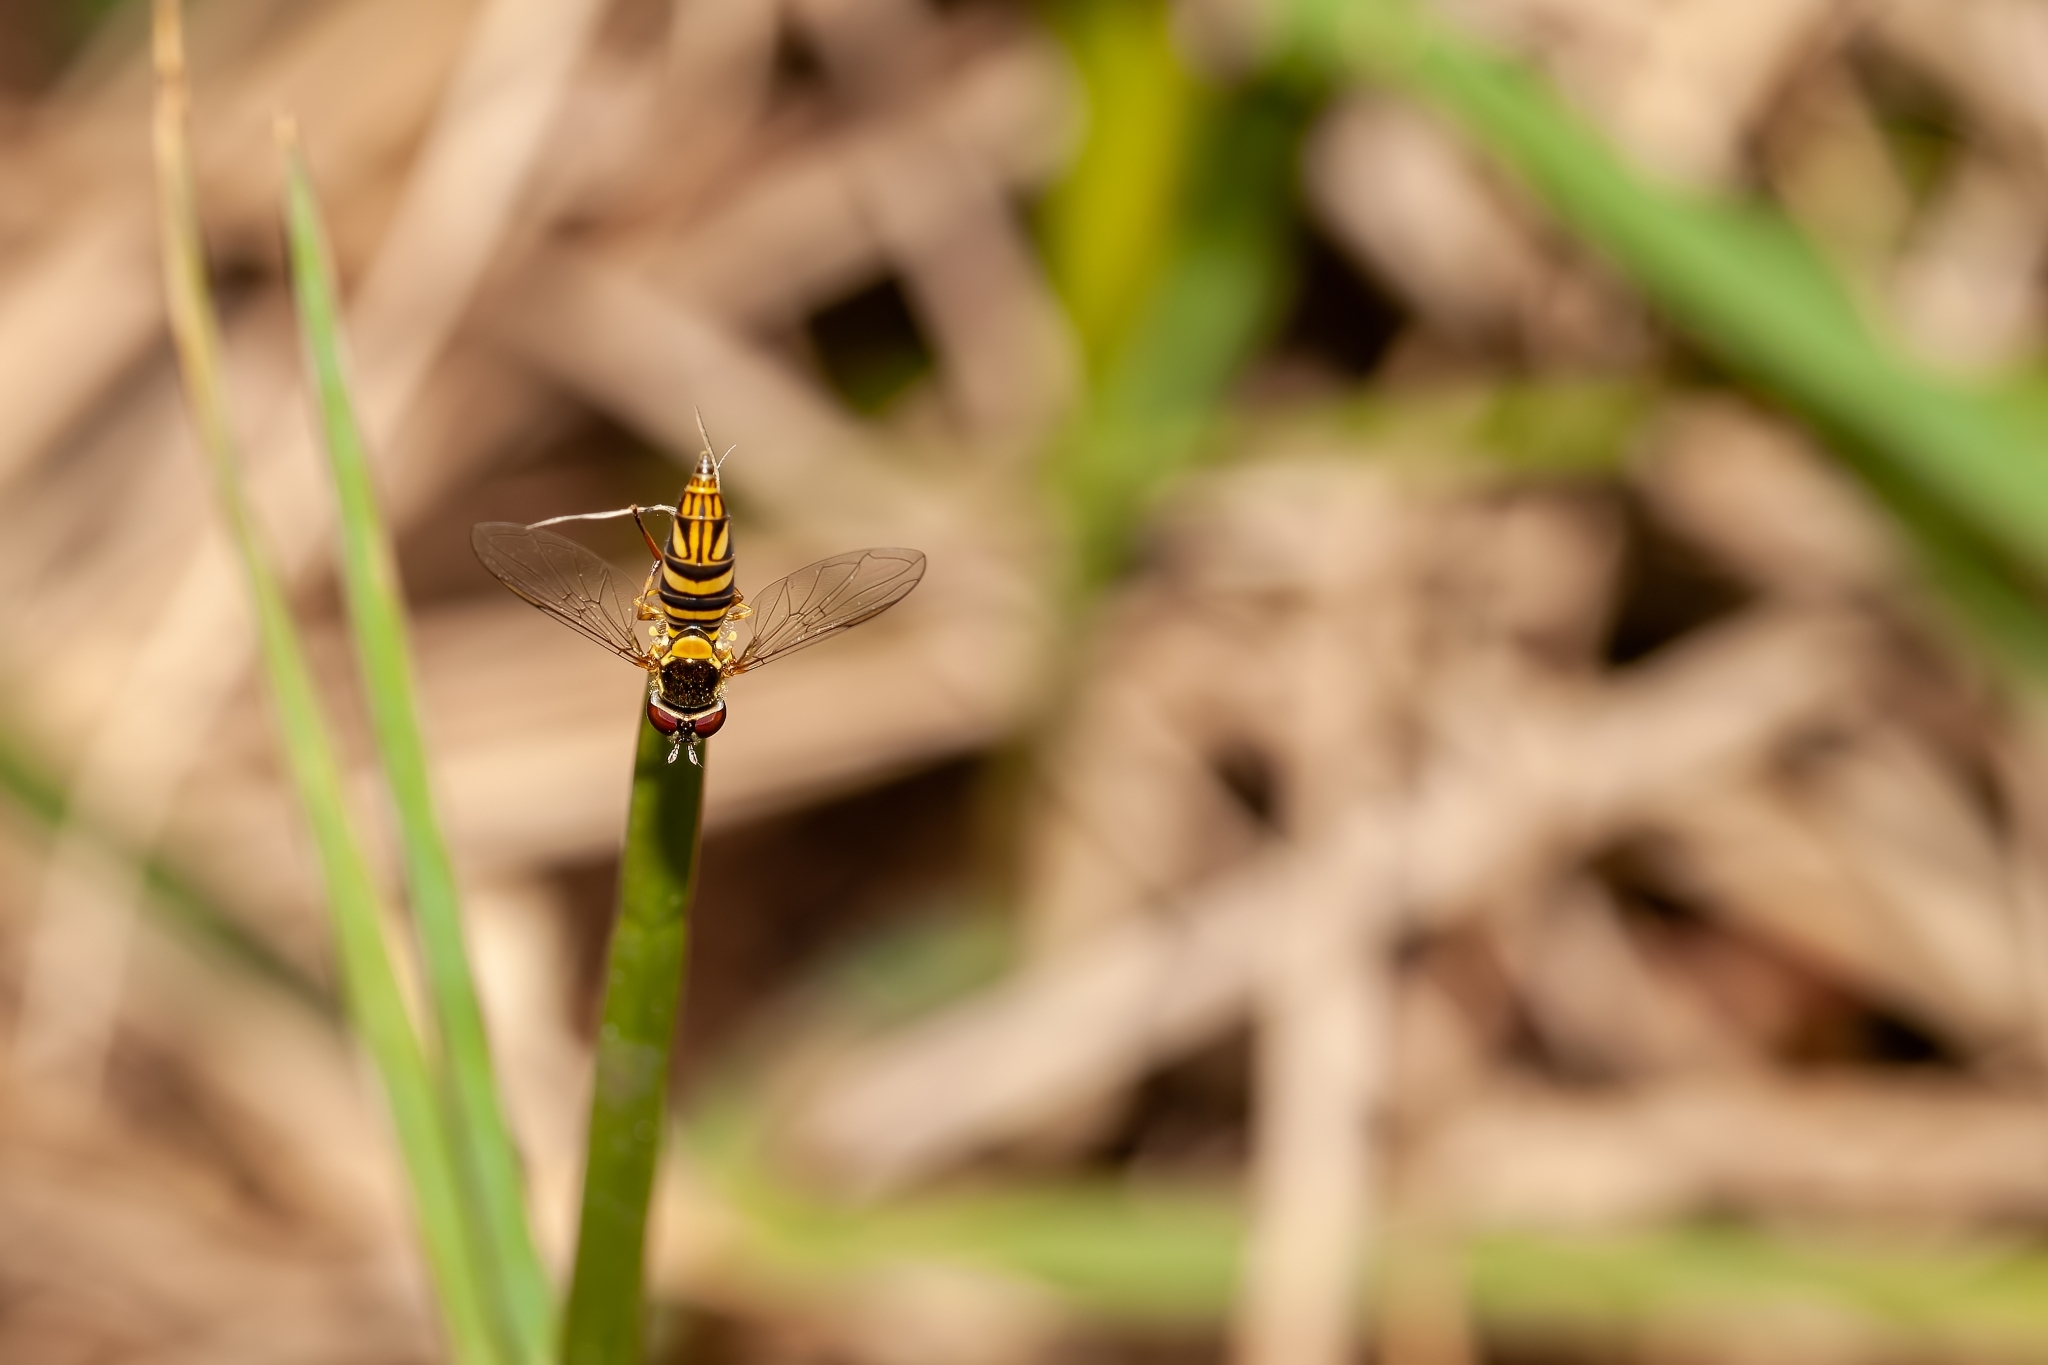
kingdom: Animalia
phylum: Arthropoda
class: Insecta
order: Diptera
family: Syrphidae
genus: Allograpta
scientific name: Allograpta obliqua
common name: Common oblique syrphid
